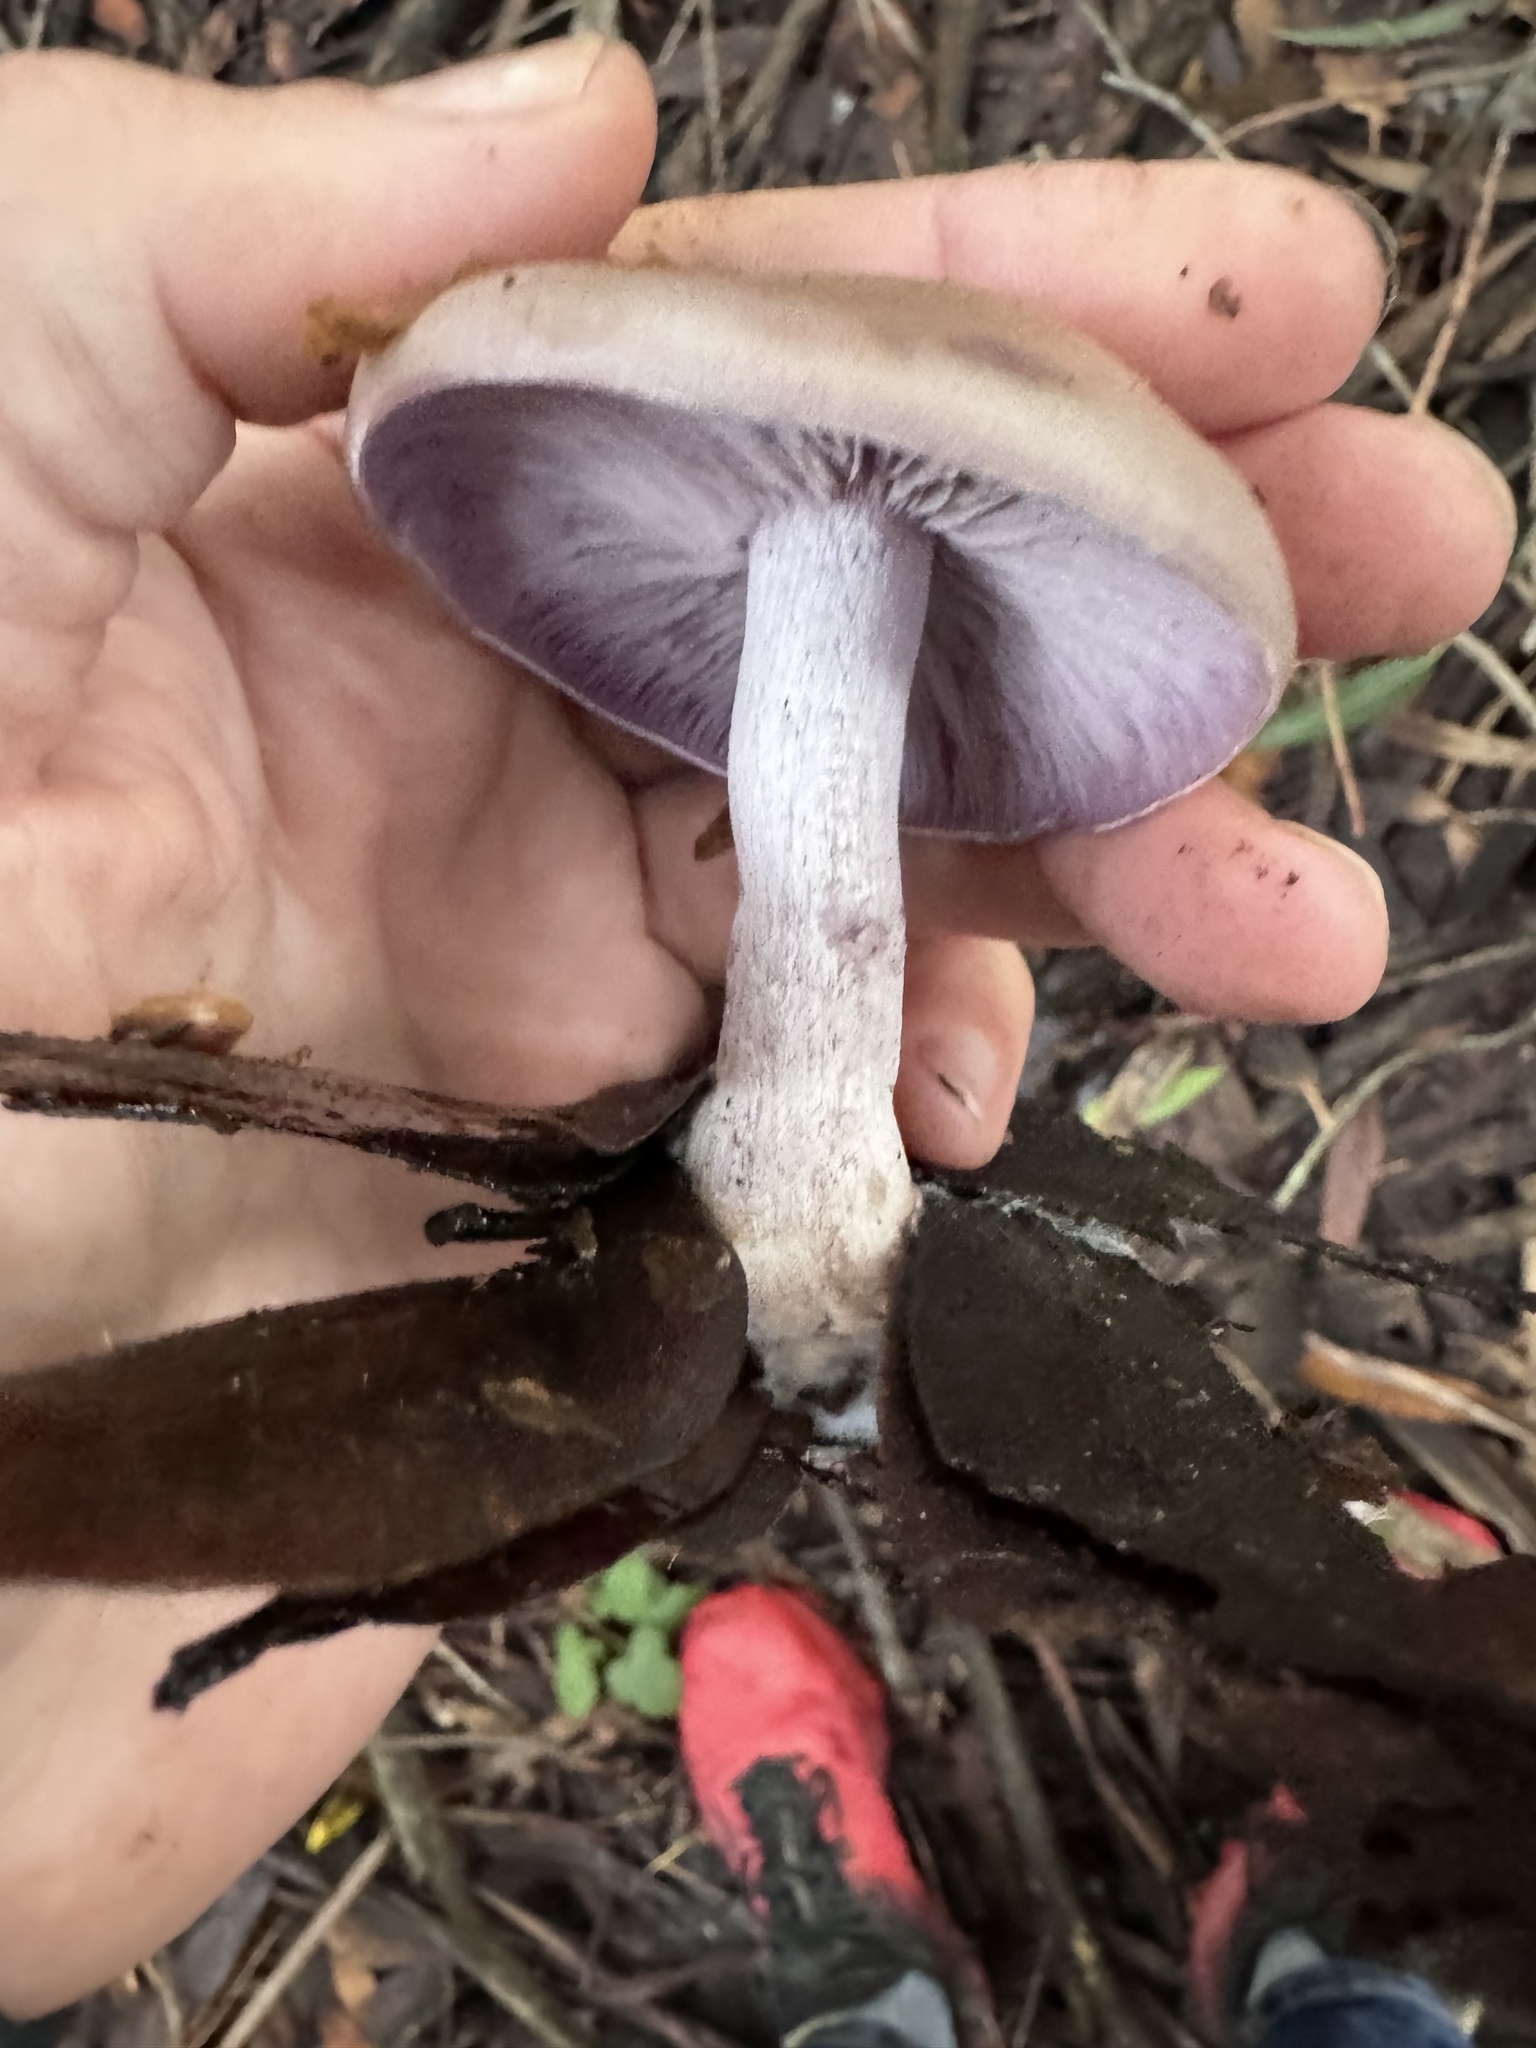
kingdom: Fungi
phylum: Basidiomycota
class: Agaricomycetes
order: Agaricales
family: Tricholomataceae
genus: Collybia
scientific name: Collybia
